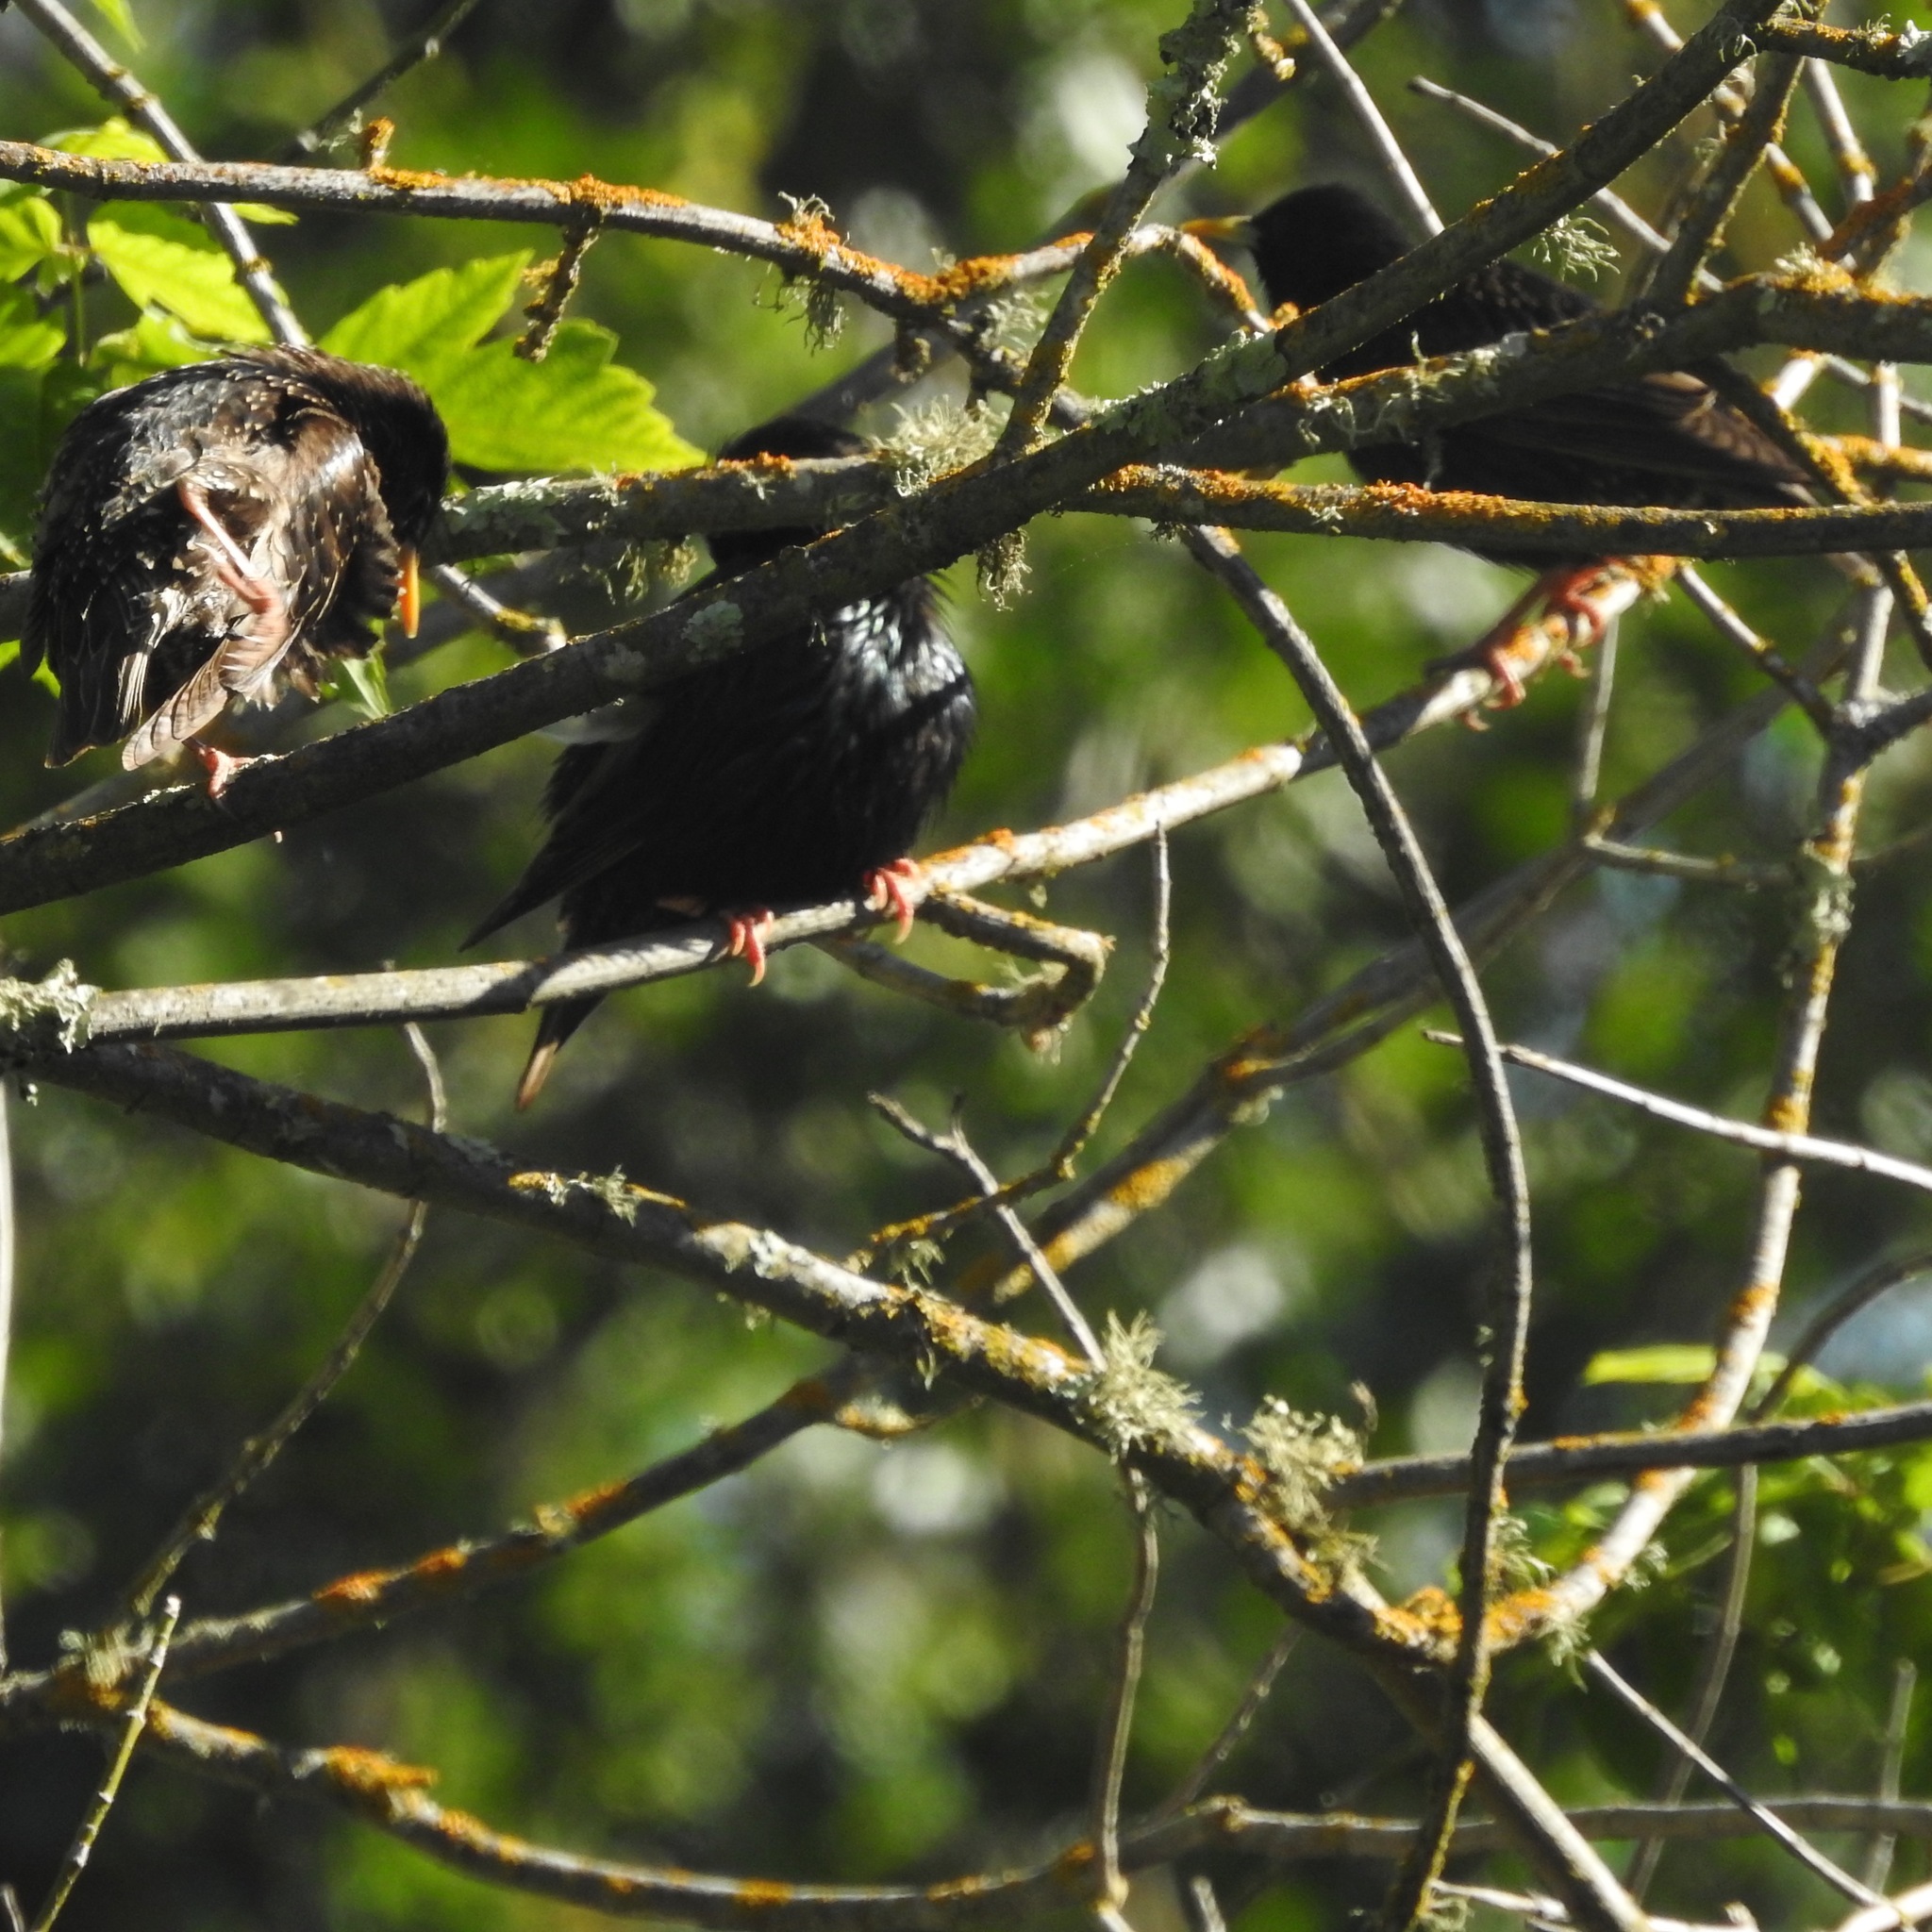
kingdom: Animalia
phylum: Chordata
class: Aves
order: Passeriformes
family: Sturnidae
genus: Sturnus
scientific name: Sturnus vulgaris
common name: Common starling
